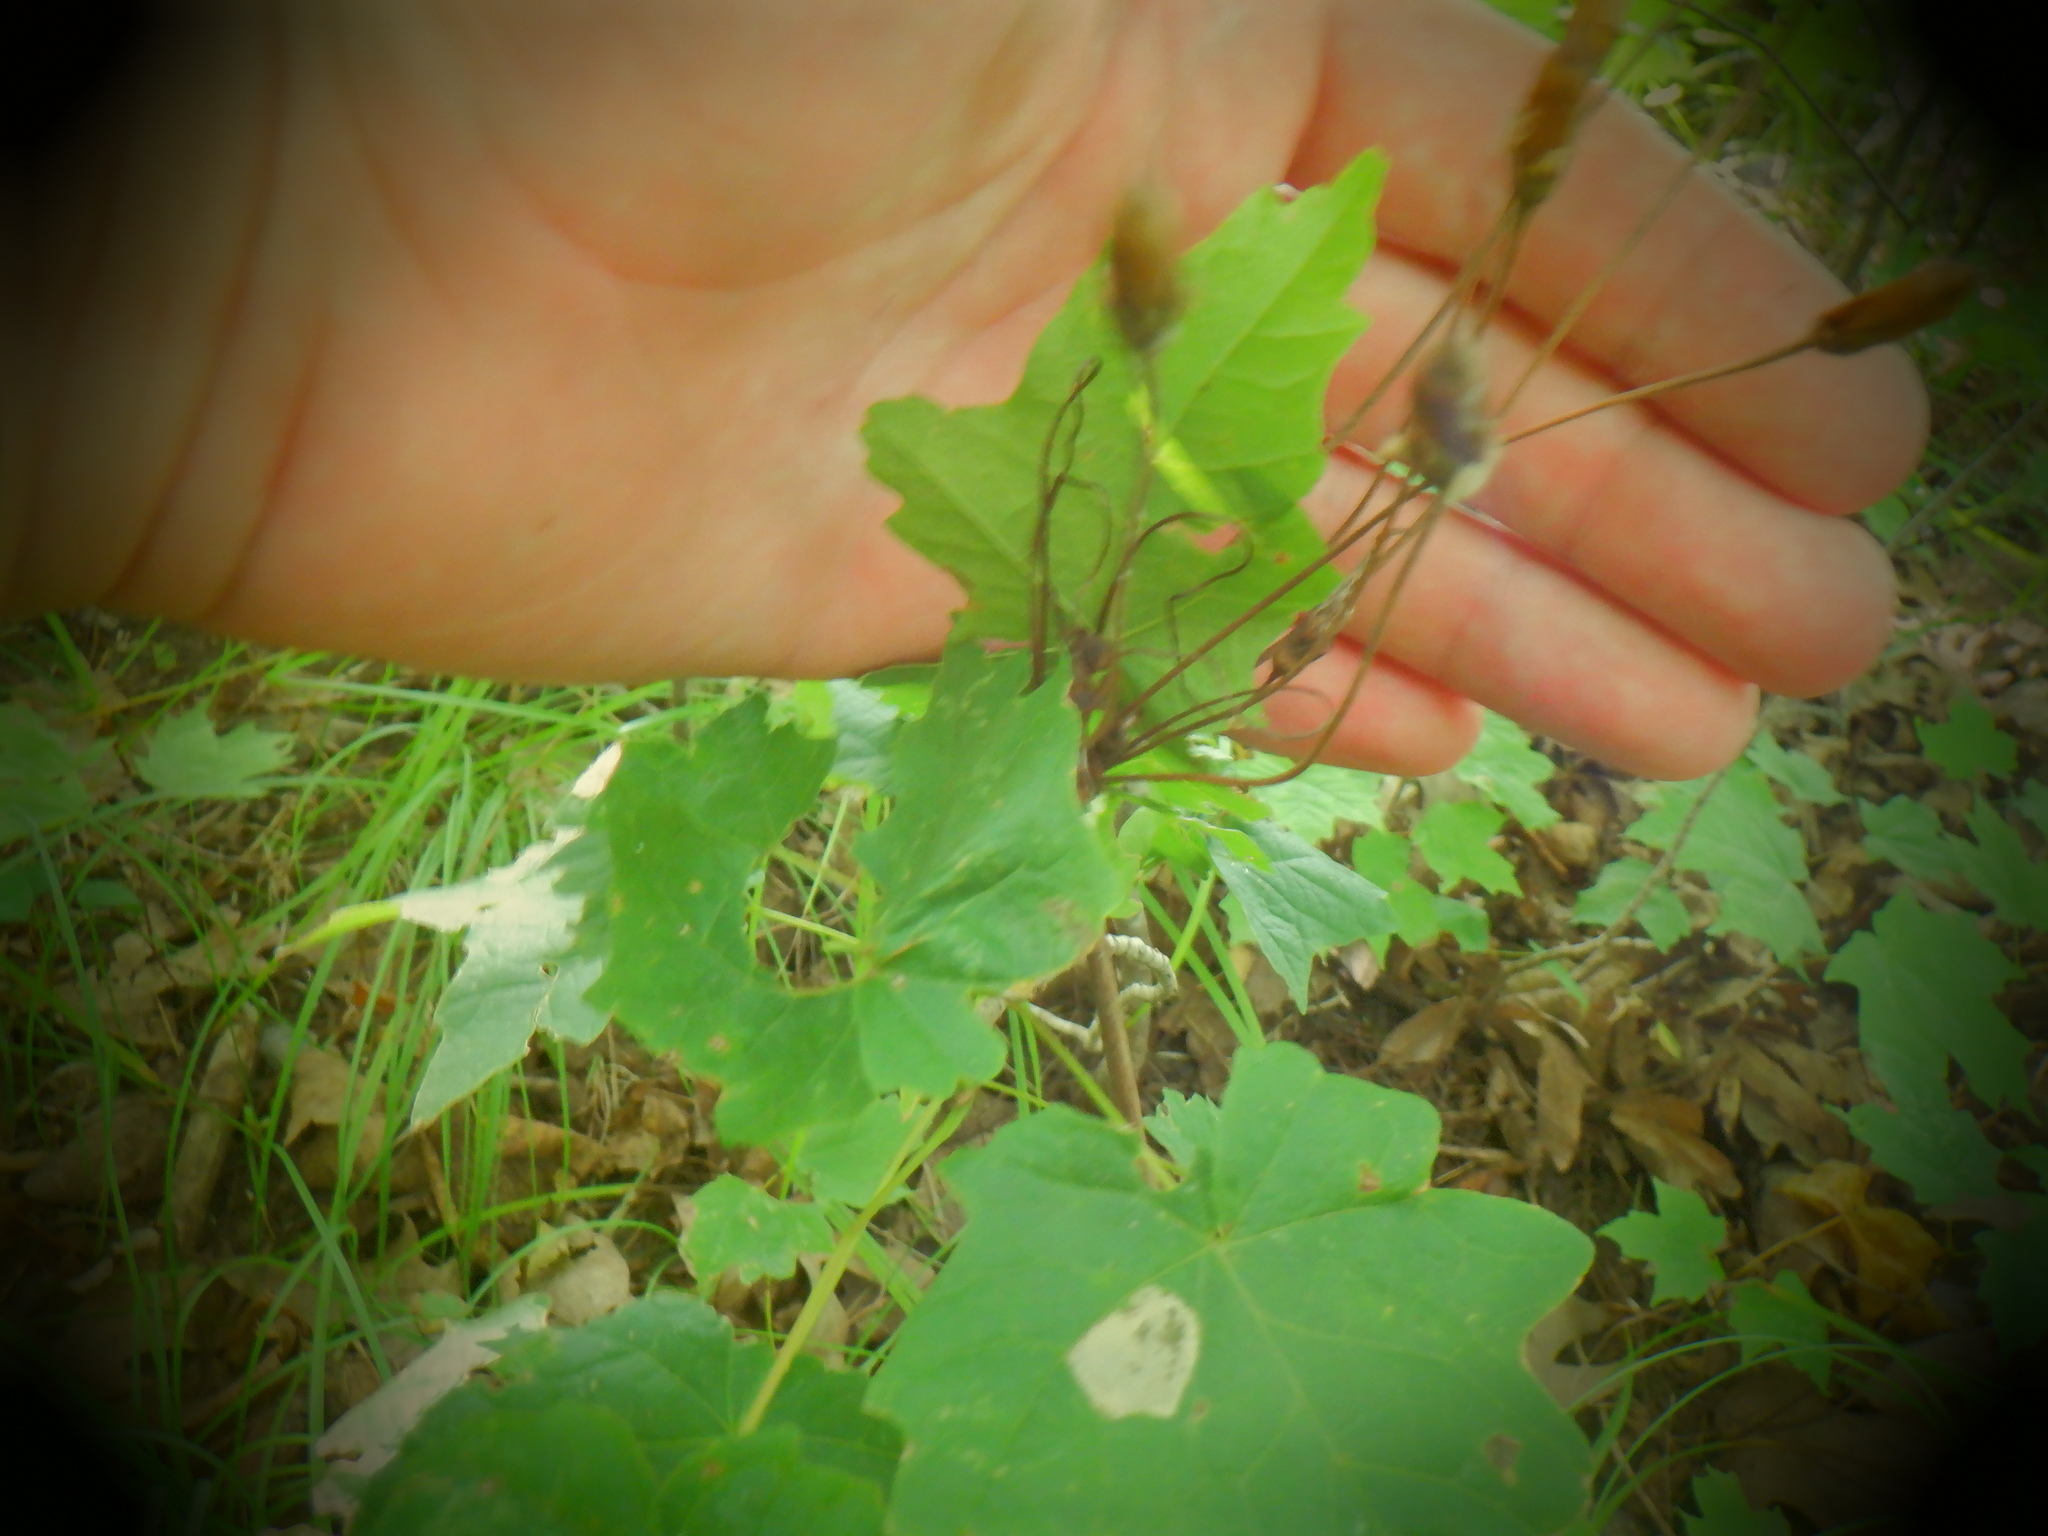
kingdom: Plantae
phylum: Tracheophyta
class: Magnoliopsida
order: Ranunculales
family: Ranunculaceae
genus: Aquilegia
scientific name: Aquilegia canadensis
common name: American columbine
